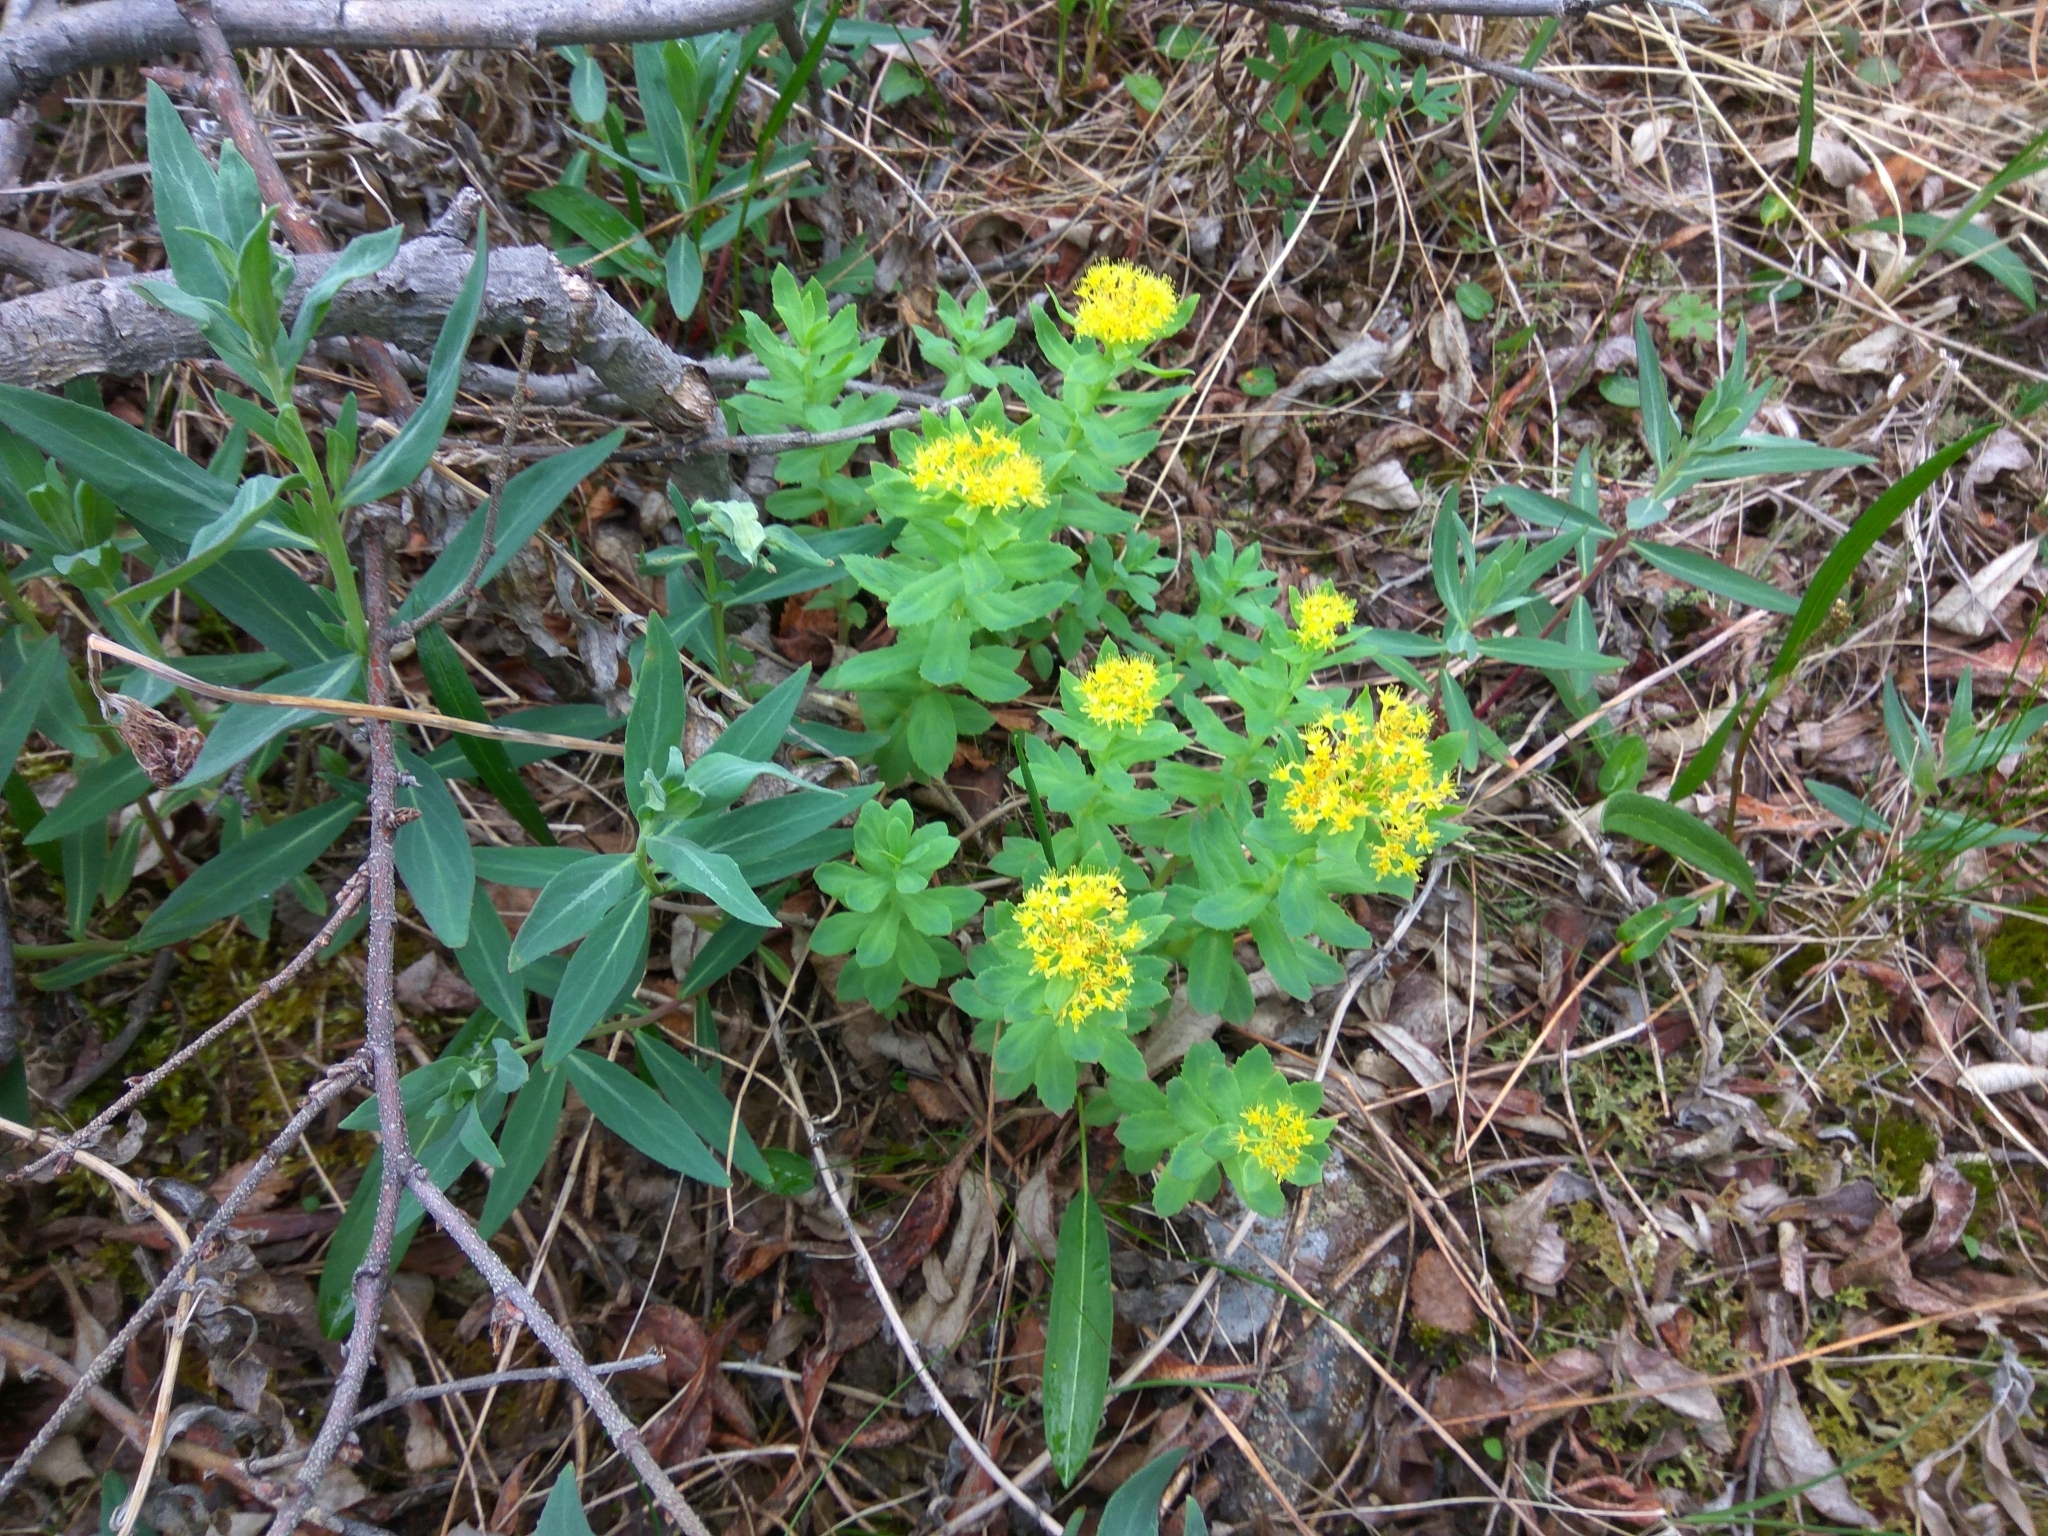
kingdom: Plantae
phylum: Tracheophyta
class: Magnoliopsida
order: Saxifragales
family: Crassulaceae
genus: Rhodiola
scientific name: Rhodiola rosea
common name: Roseroot
